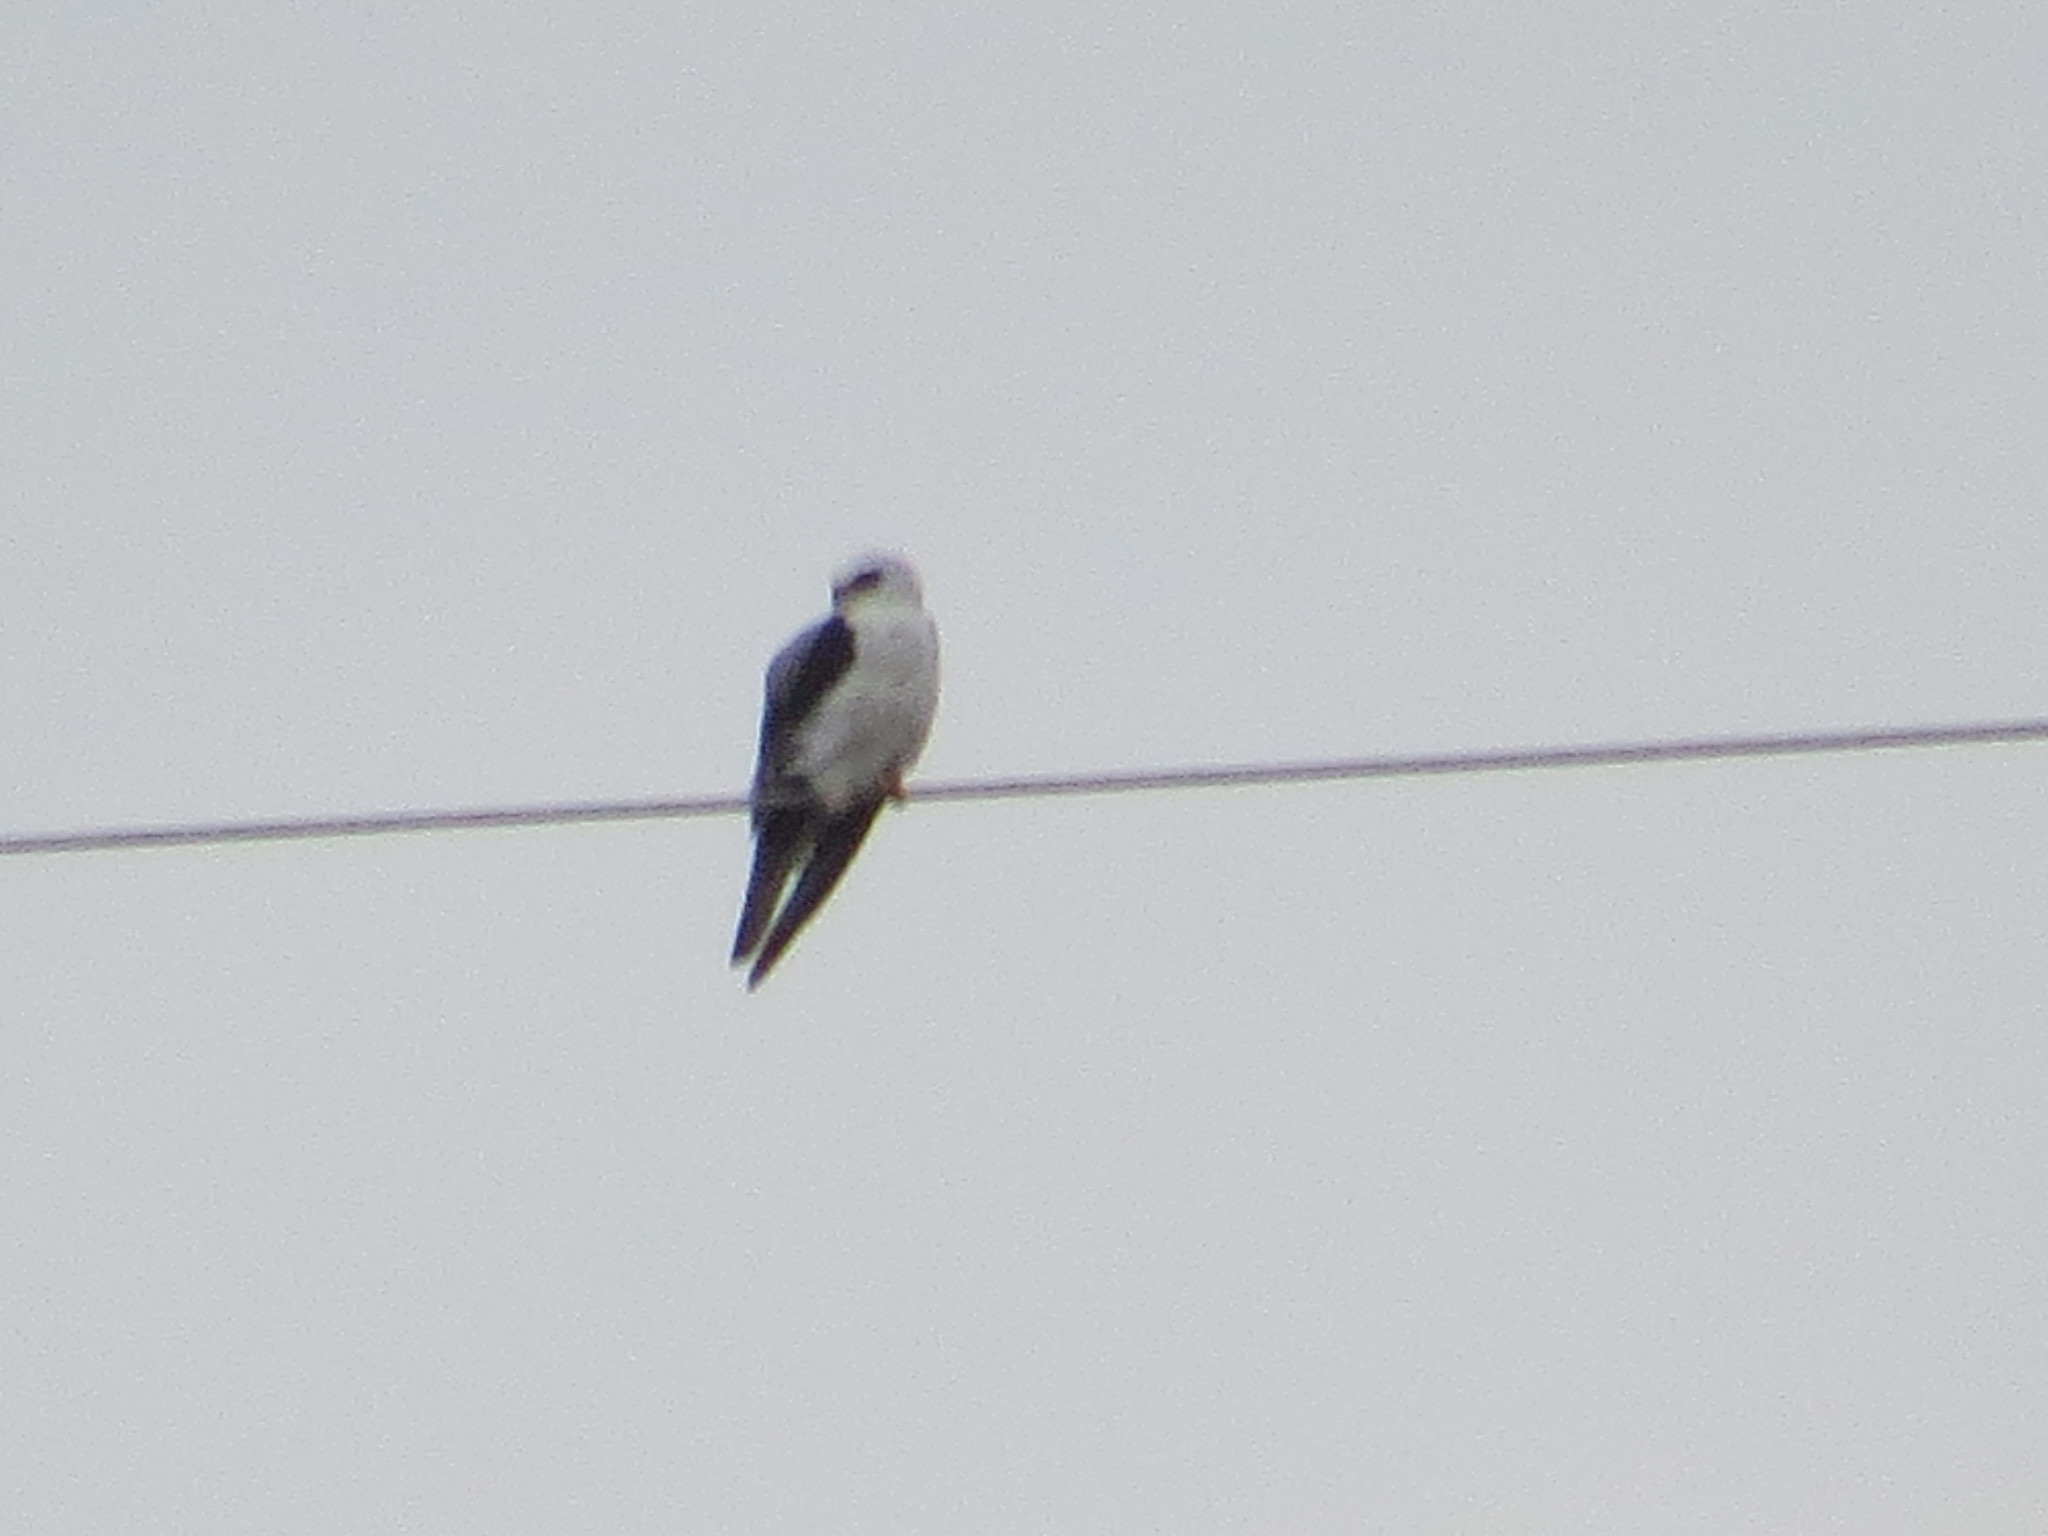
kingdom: Animalia
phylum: Chordata
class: Aves
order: Accipitriformes
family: Accipitridae
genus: Elanus
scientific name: Elanus leucurus
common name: White-tailed kite
